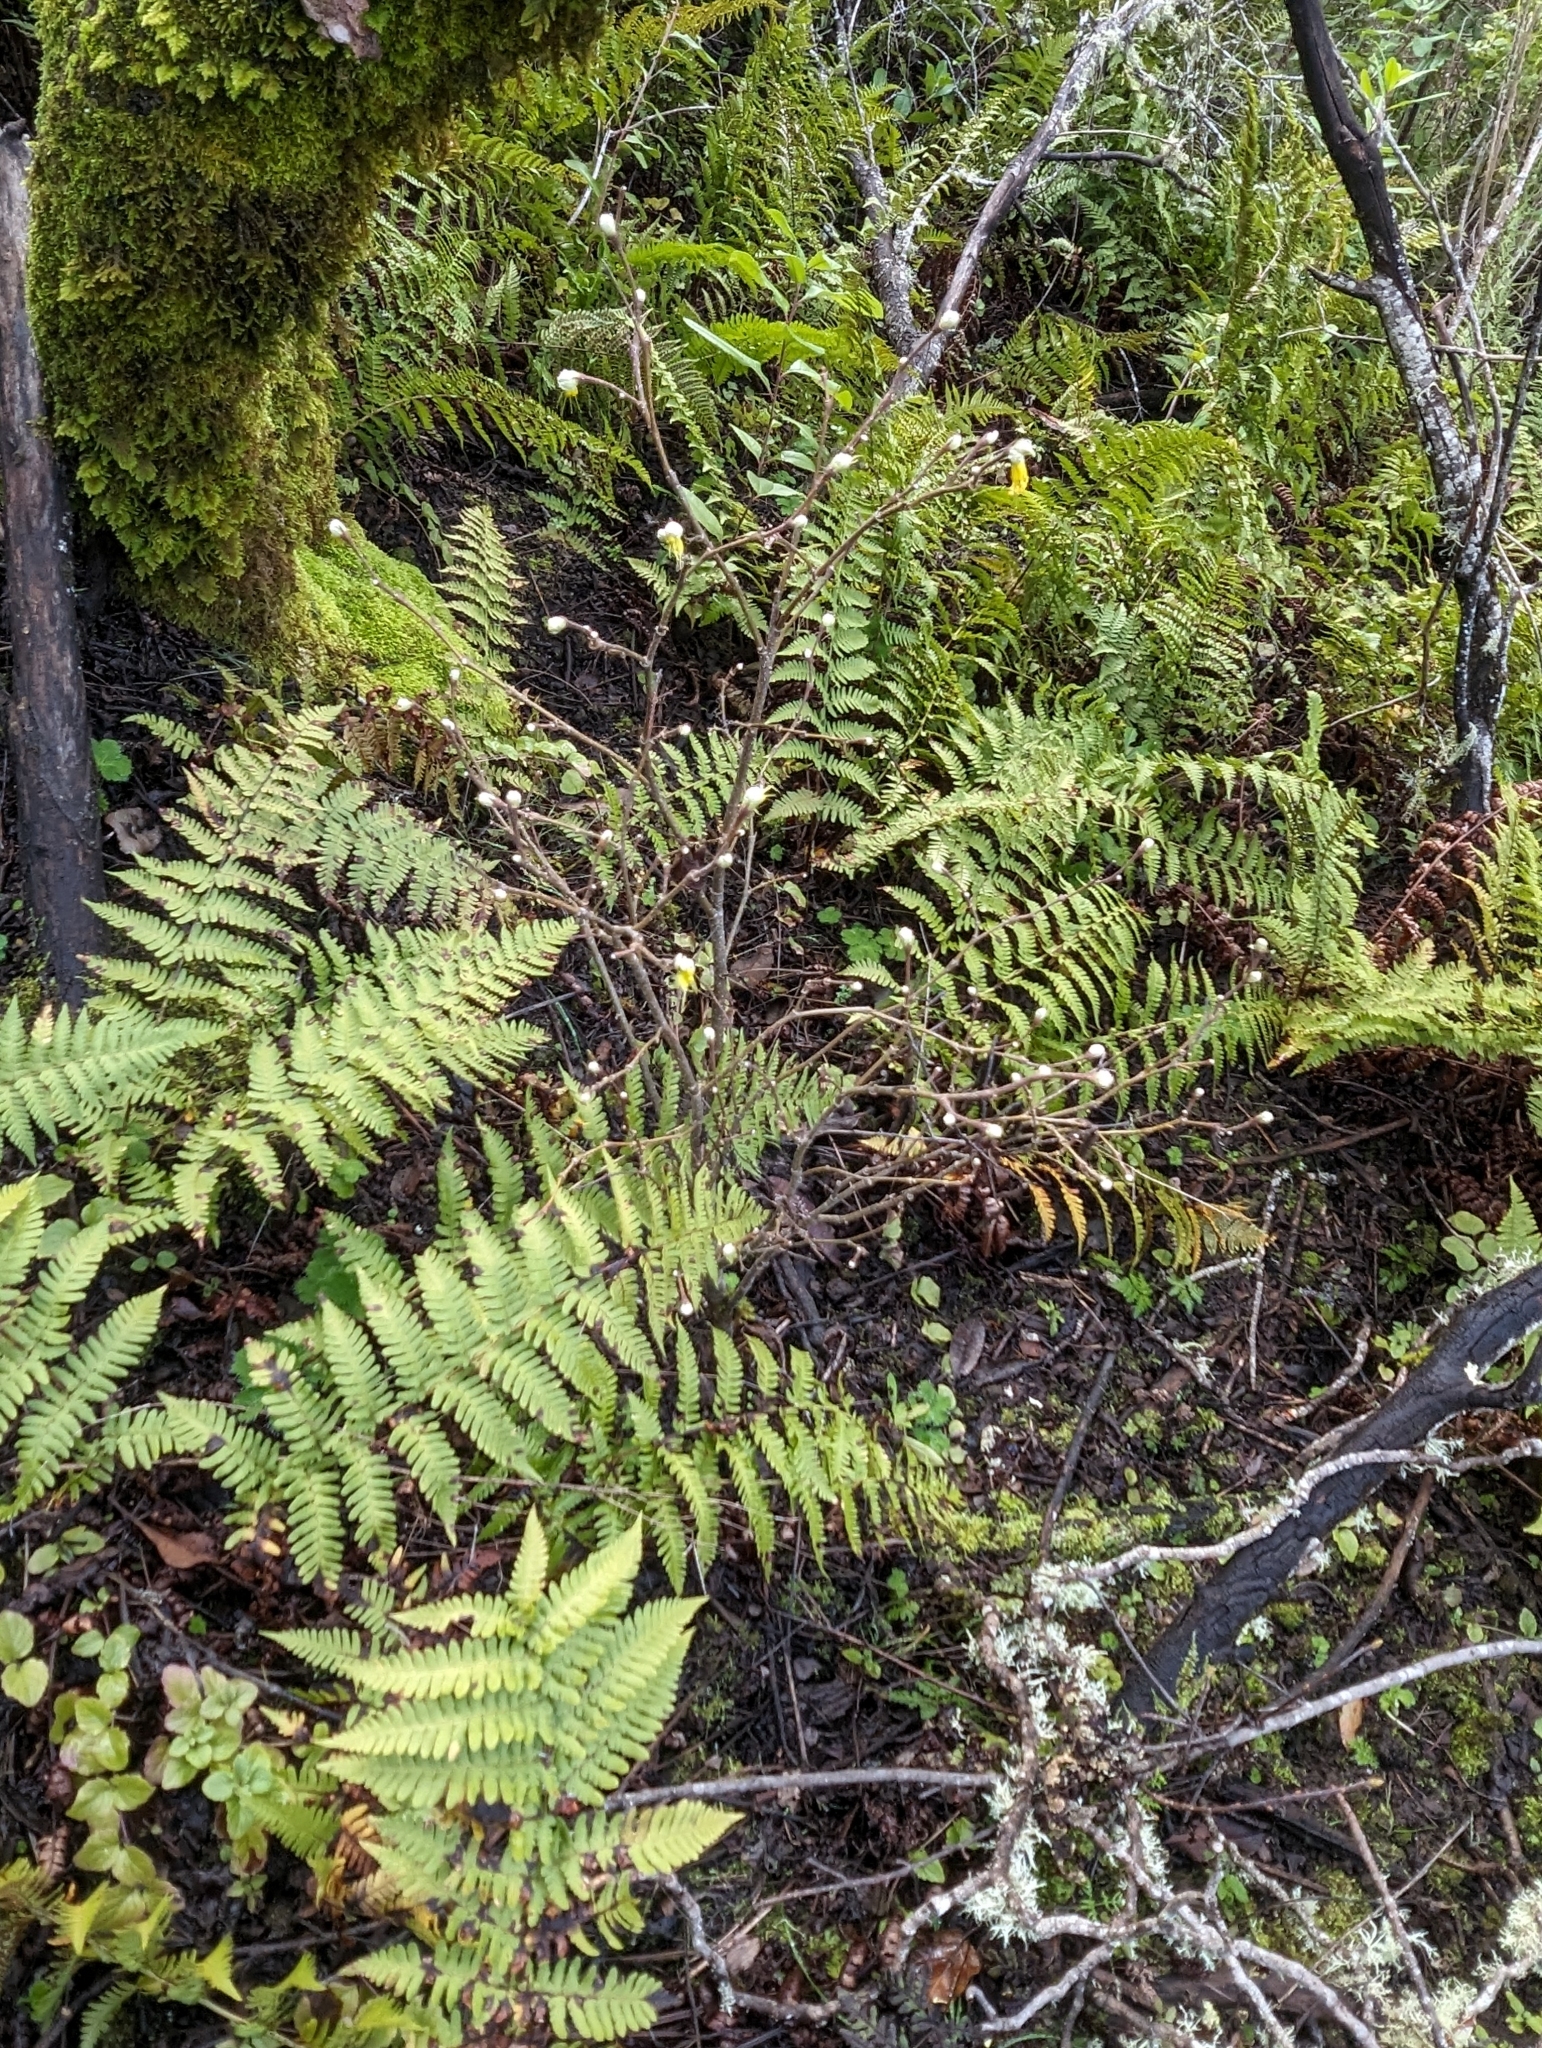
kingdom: Plantae
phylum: Tracheophyta
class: Magnoliopsida
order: Malvales
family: Thymelaeaceae
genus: Dirca
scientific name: Dirca occidentalis
